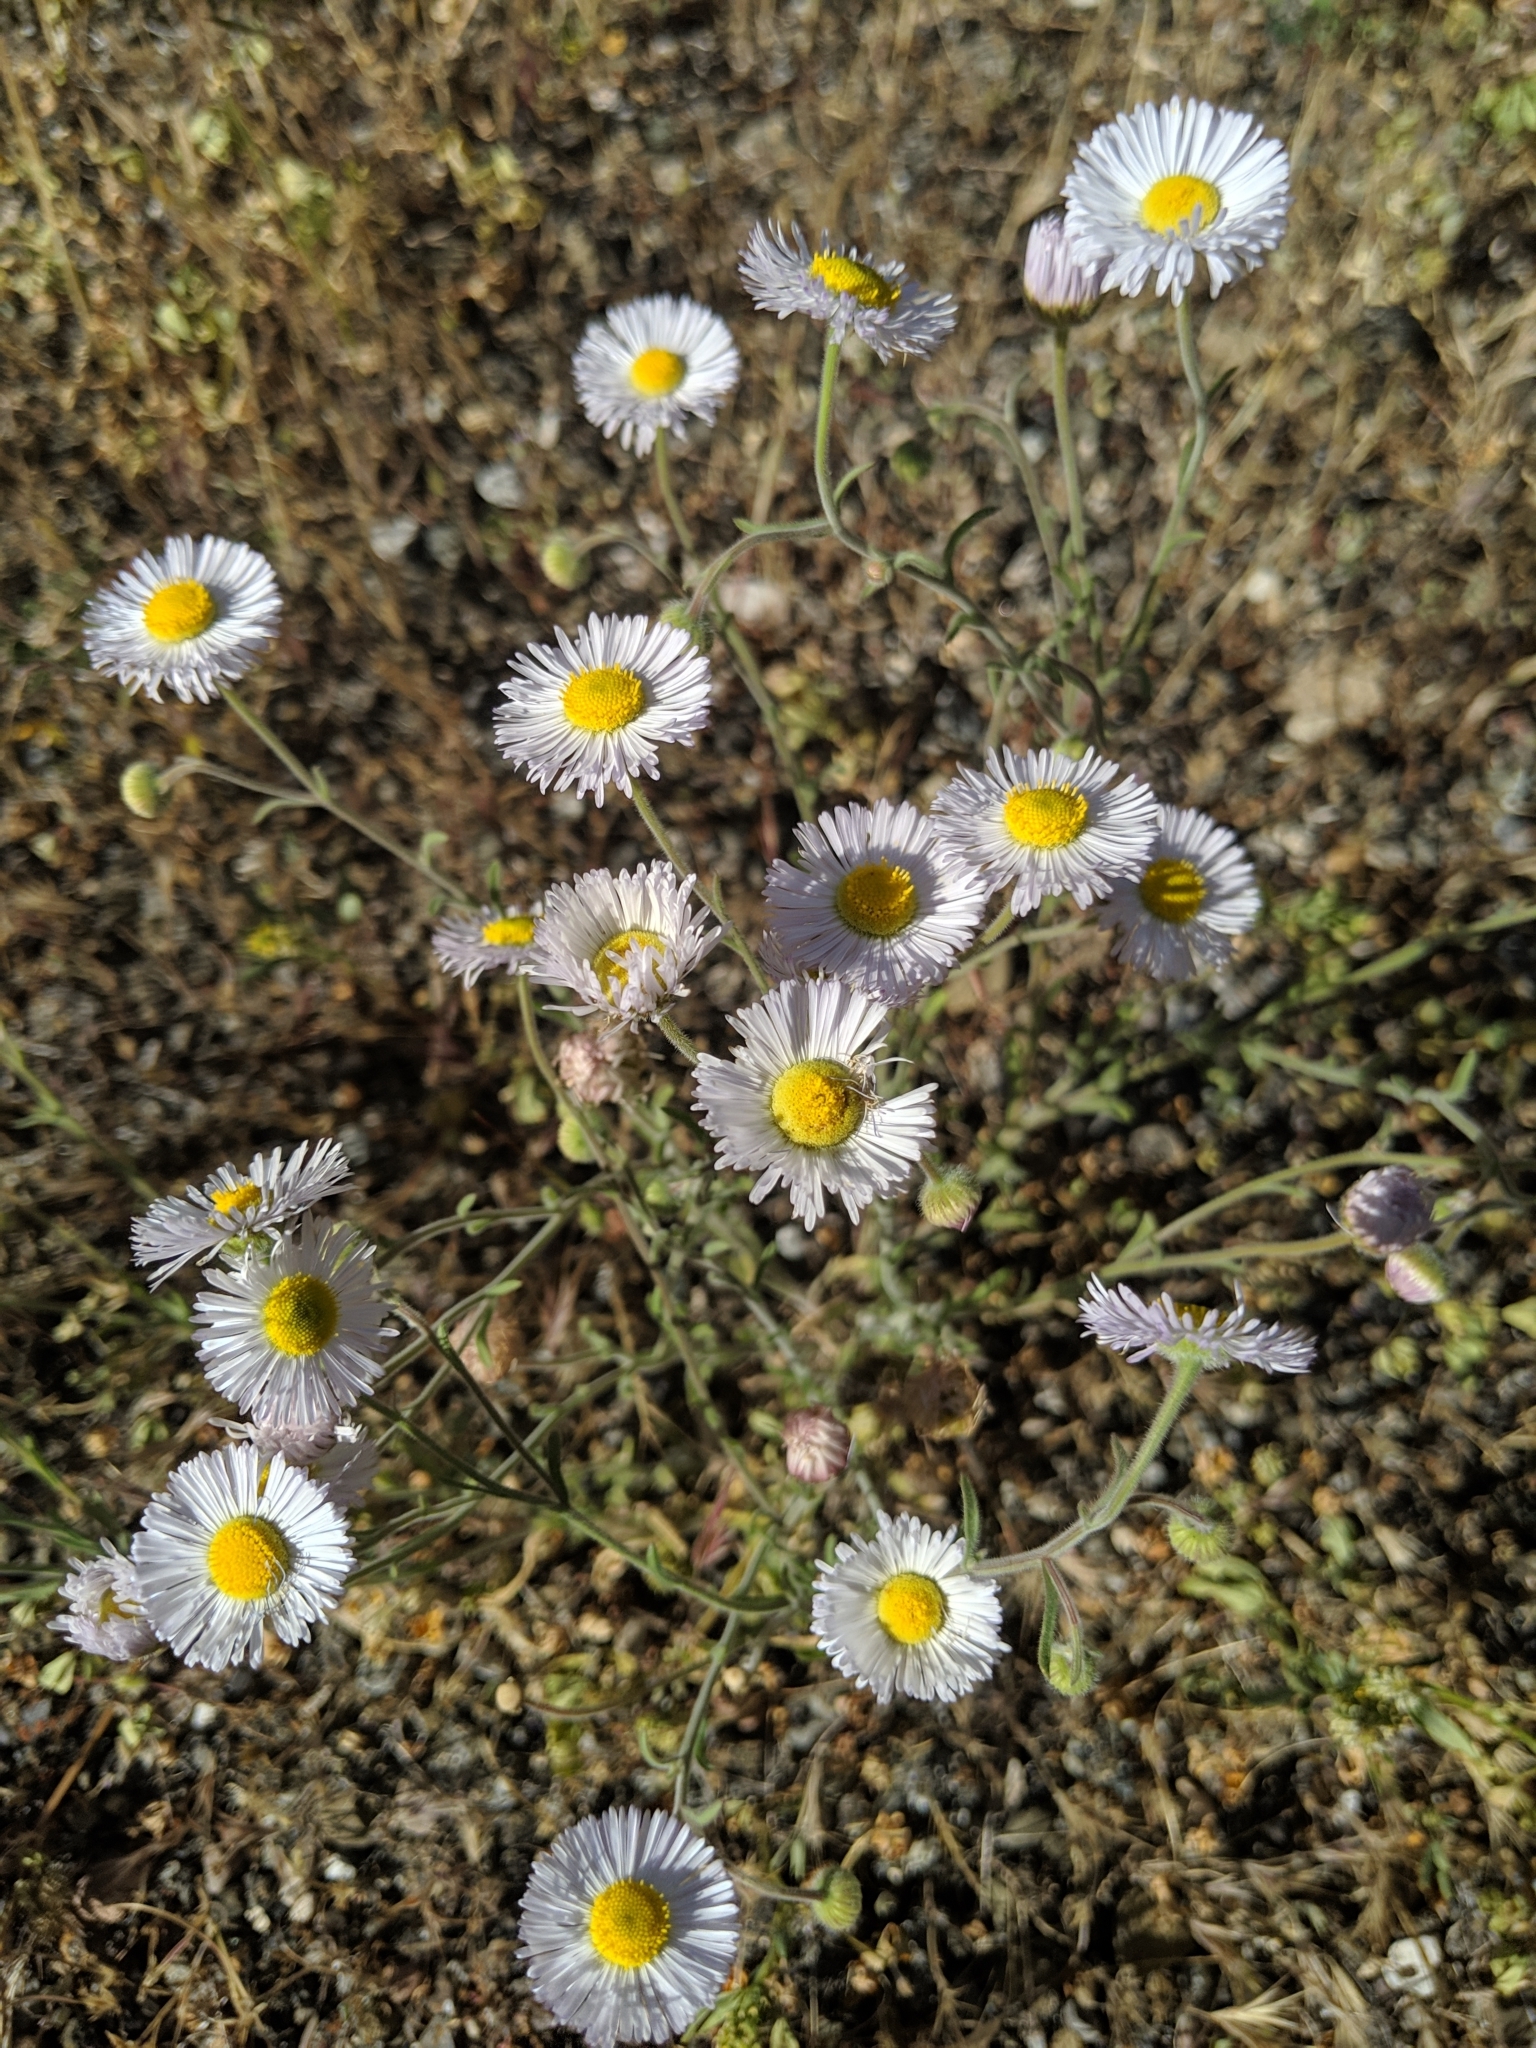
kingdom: Plantae
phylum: Tracheophyta
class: Magnoliopsida
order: Asterales
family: Asteraceae
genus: Erigeron
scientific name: Erigeron divergens
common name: Diffuse fleabane
